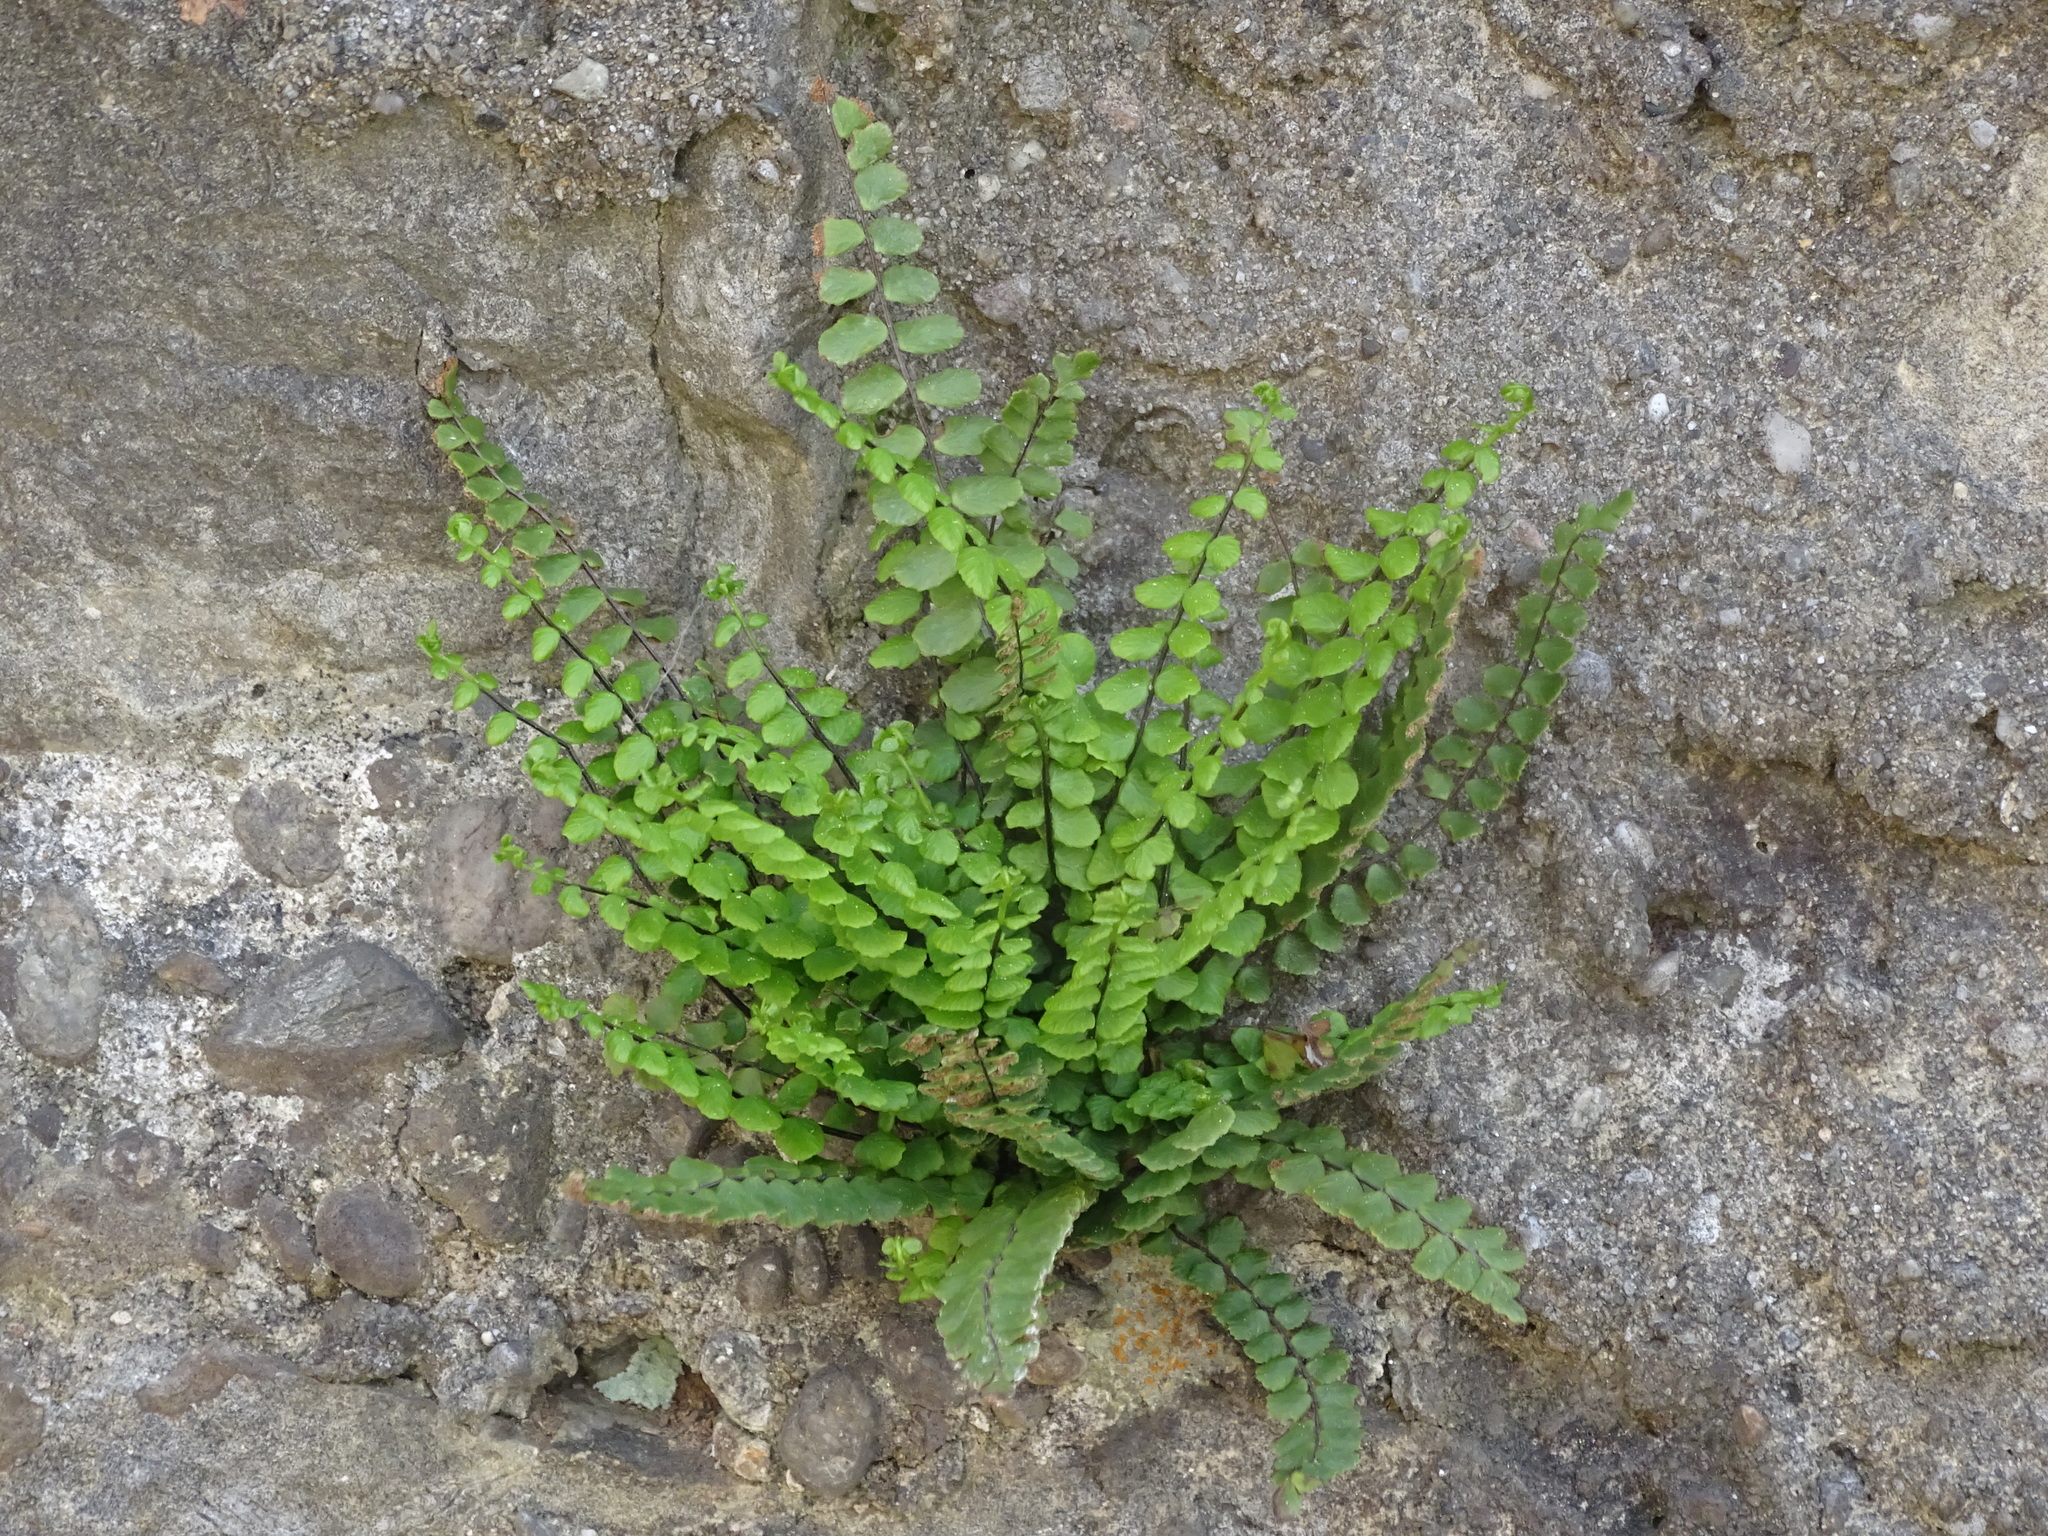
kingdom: Plantae
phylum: Tracheophyta
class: Polypodiopsida
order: Polypodiales
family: Aspleniaceae
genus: Asplenium
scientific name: Asplenium trichomanes
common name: Maidenhair spleenwort
